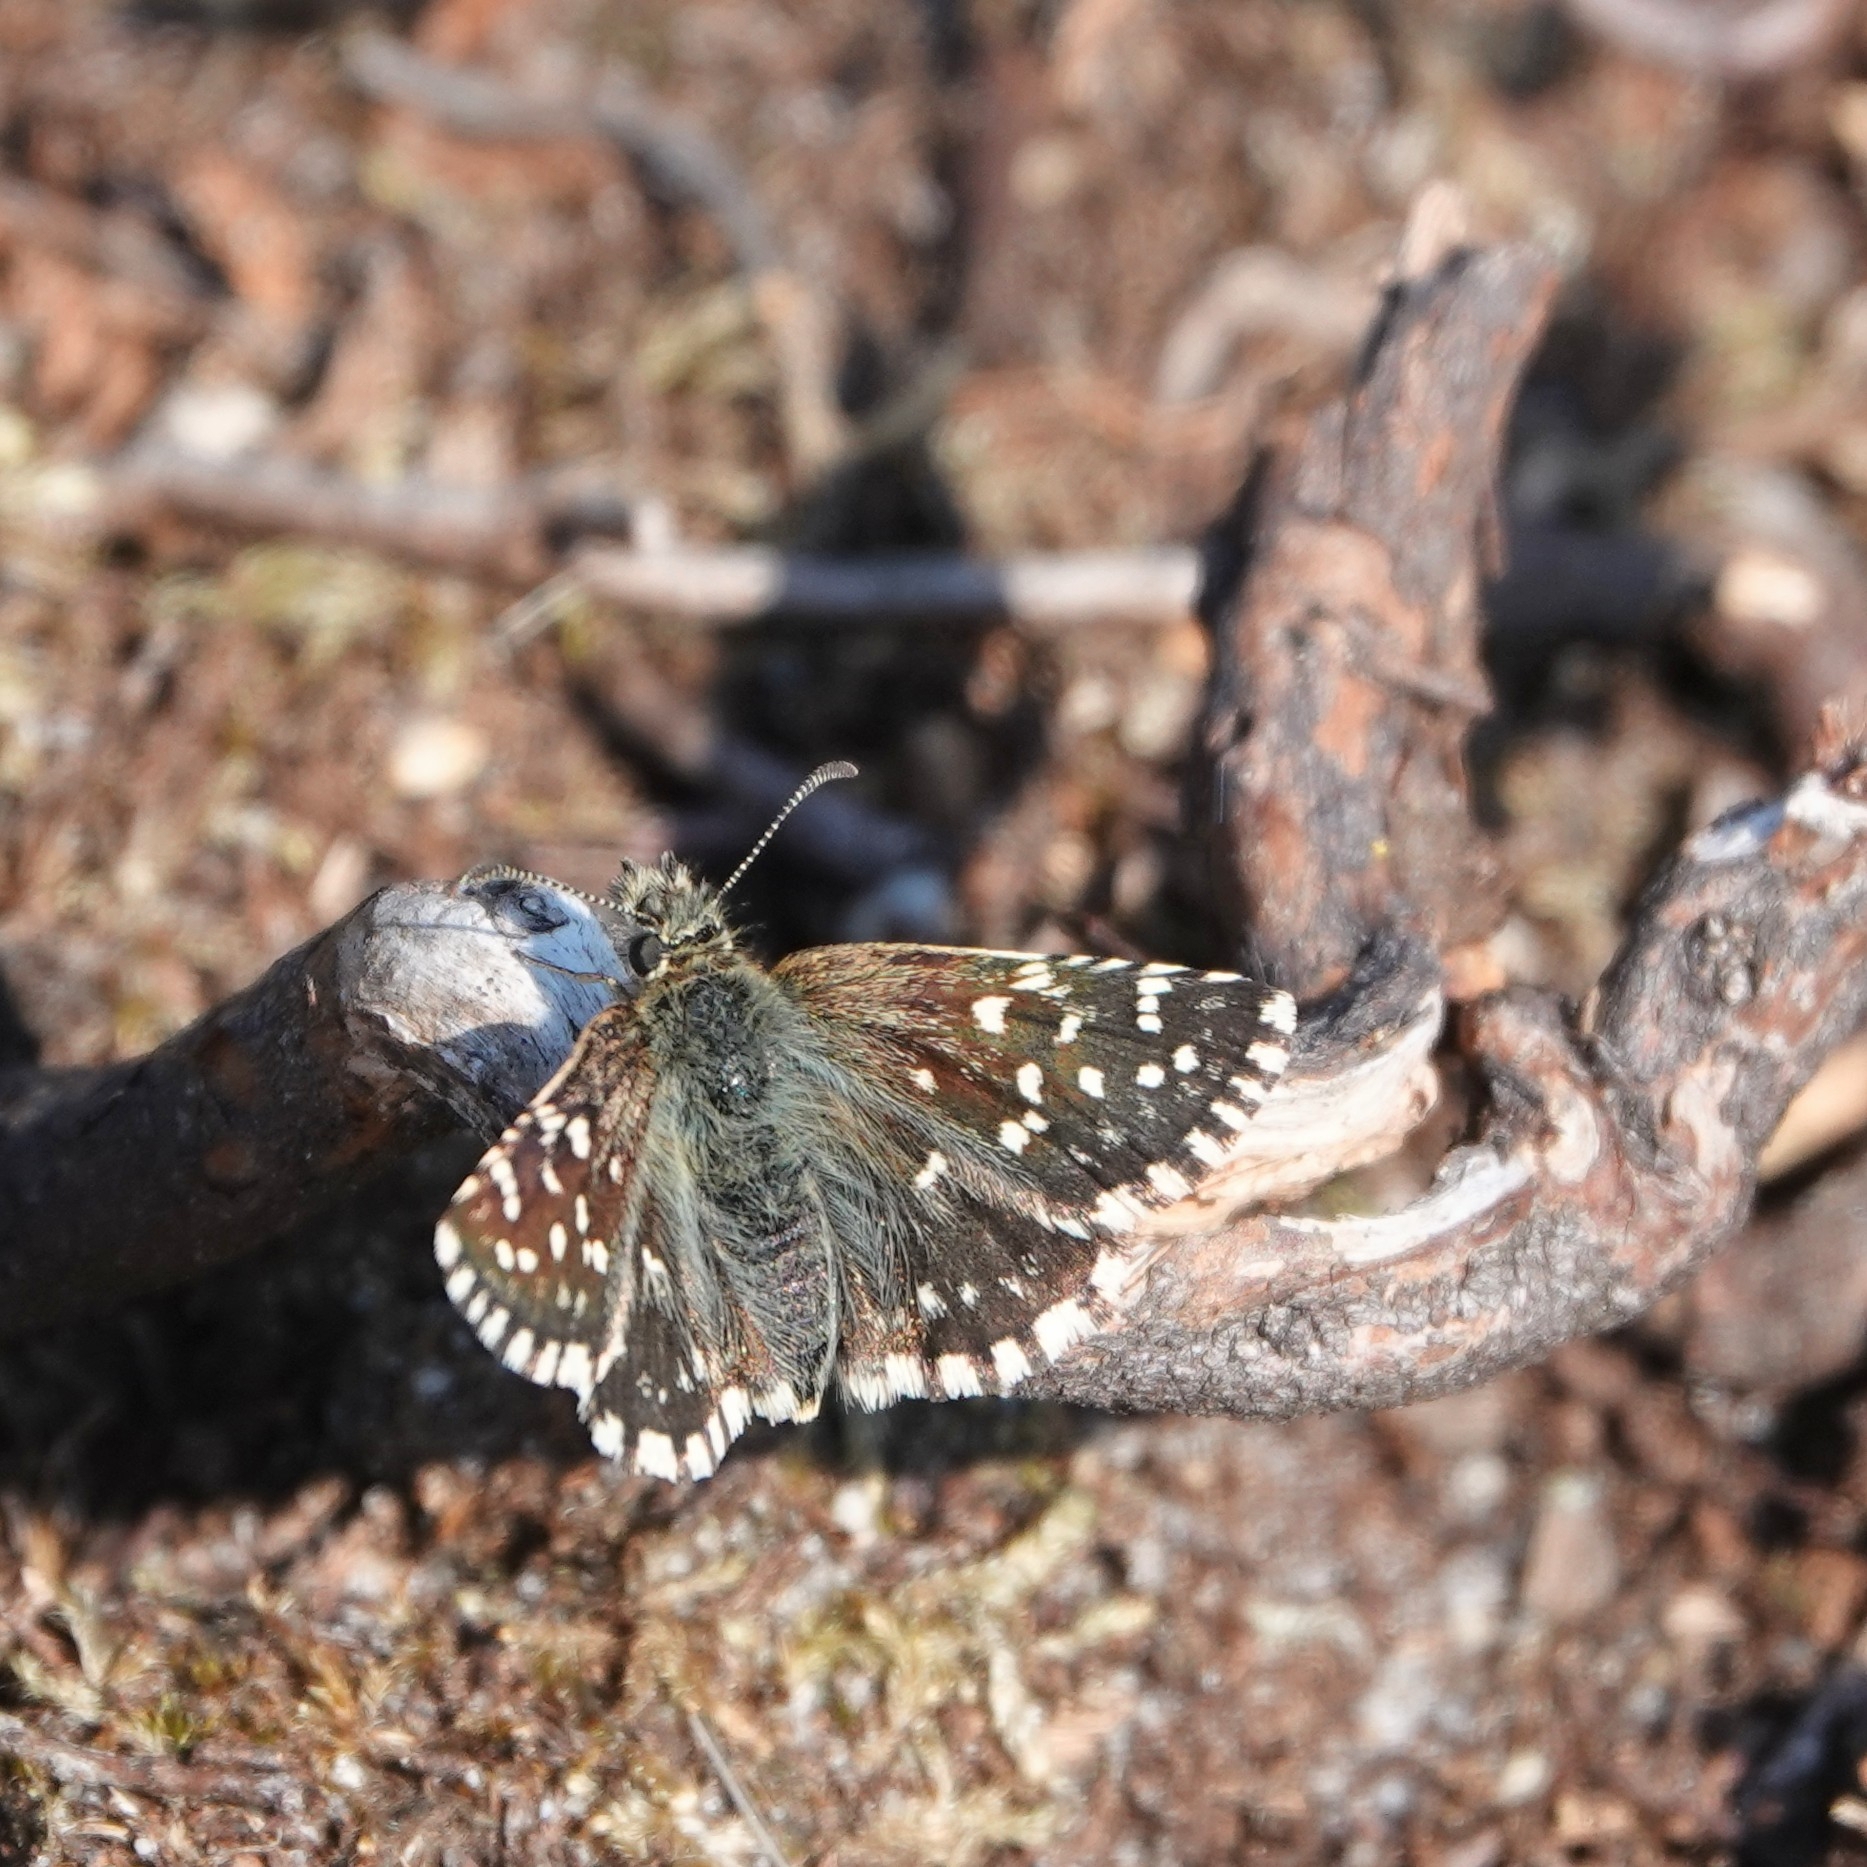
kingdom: Animalia
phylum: Arthropoda
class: Insecta
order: Lepidoptera
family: Hesperiidae
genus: Pyrgus
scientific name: Pyrgus malvae
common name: Grizzled skipper
